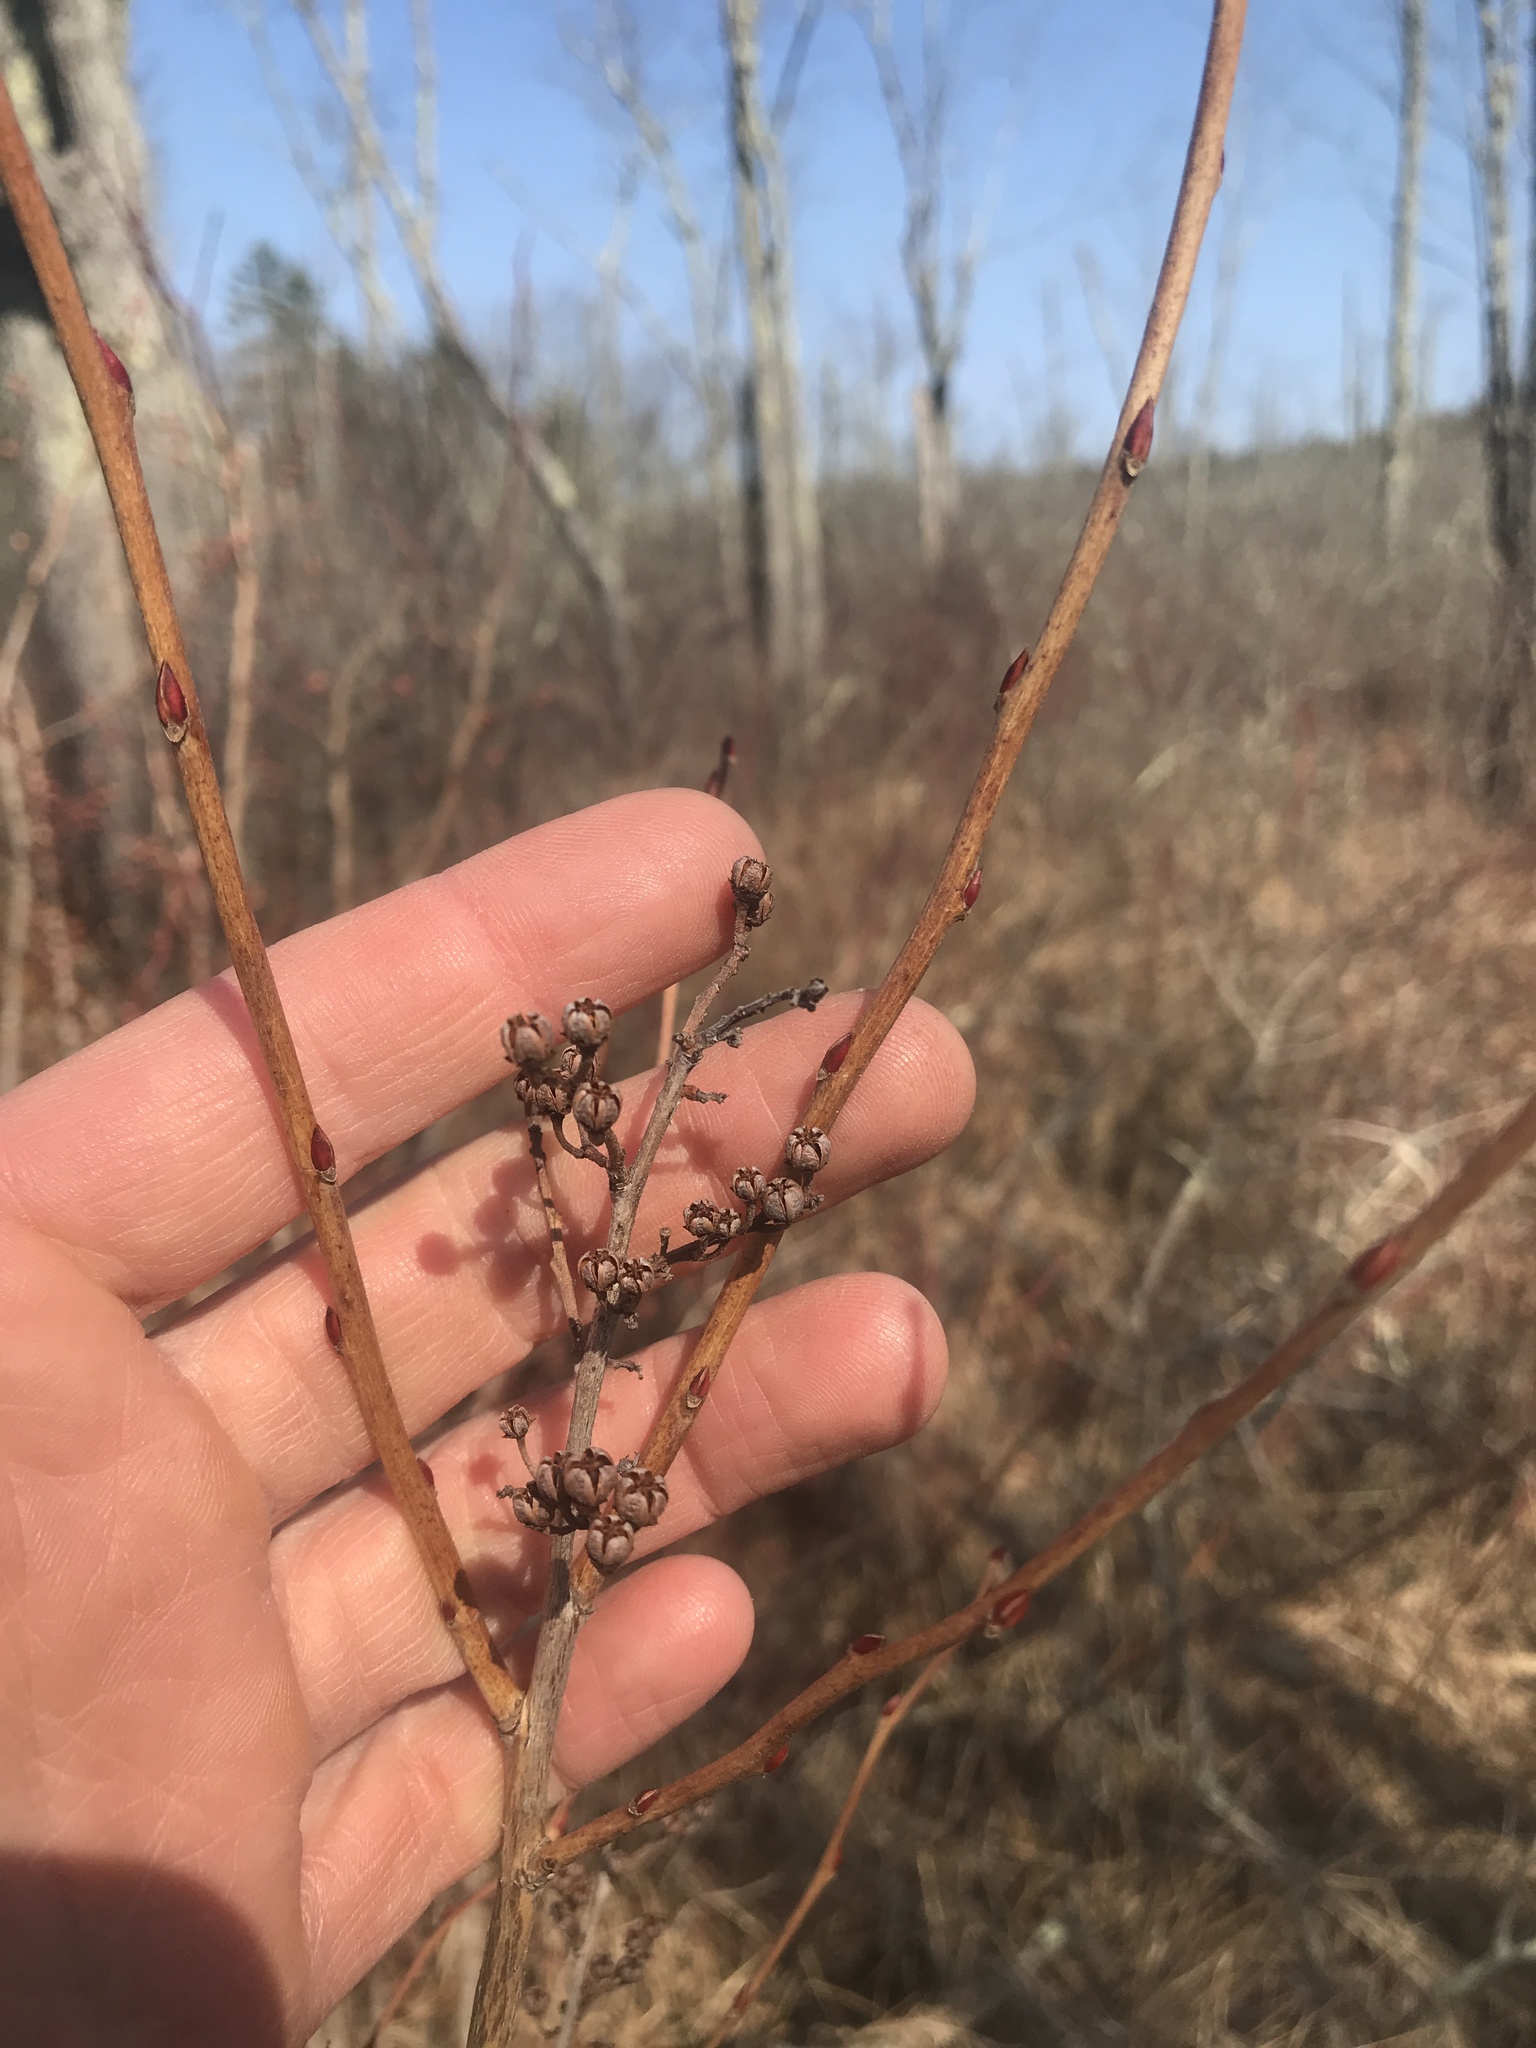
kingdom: Plantae
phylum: Tracheophyta
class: Magnoliopsida
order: Ericales
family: Ericaceae
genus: Lyonia
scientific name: Lyonia ligustrina
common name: Maleberry
